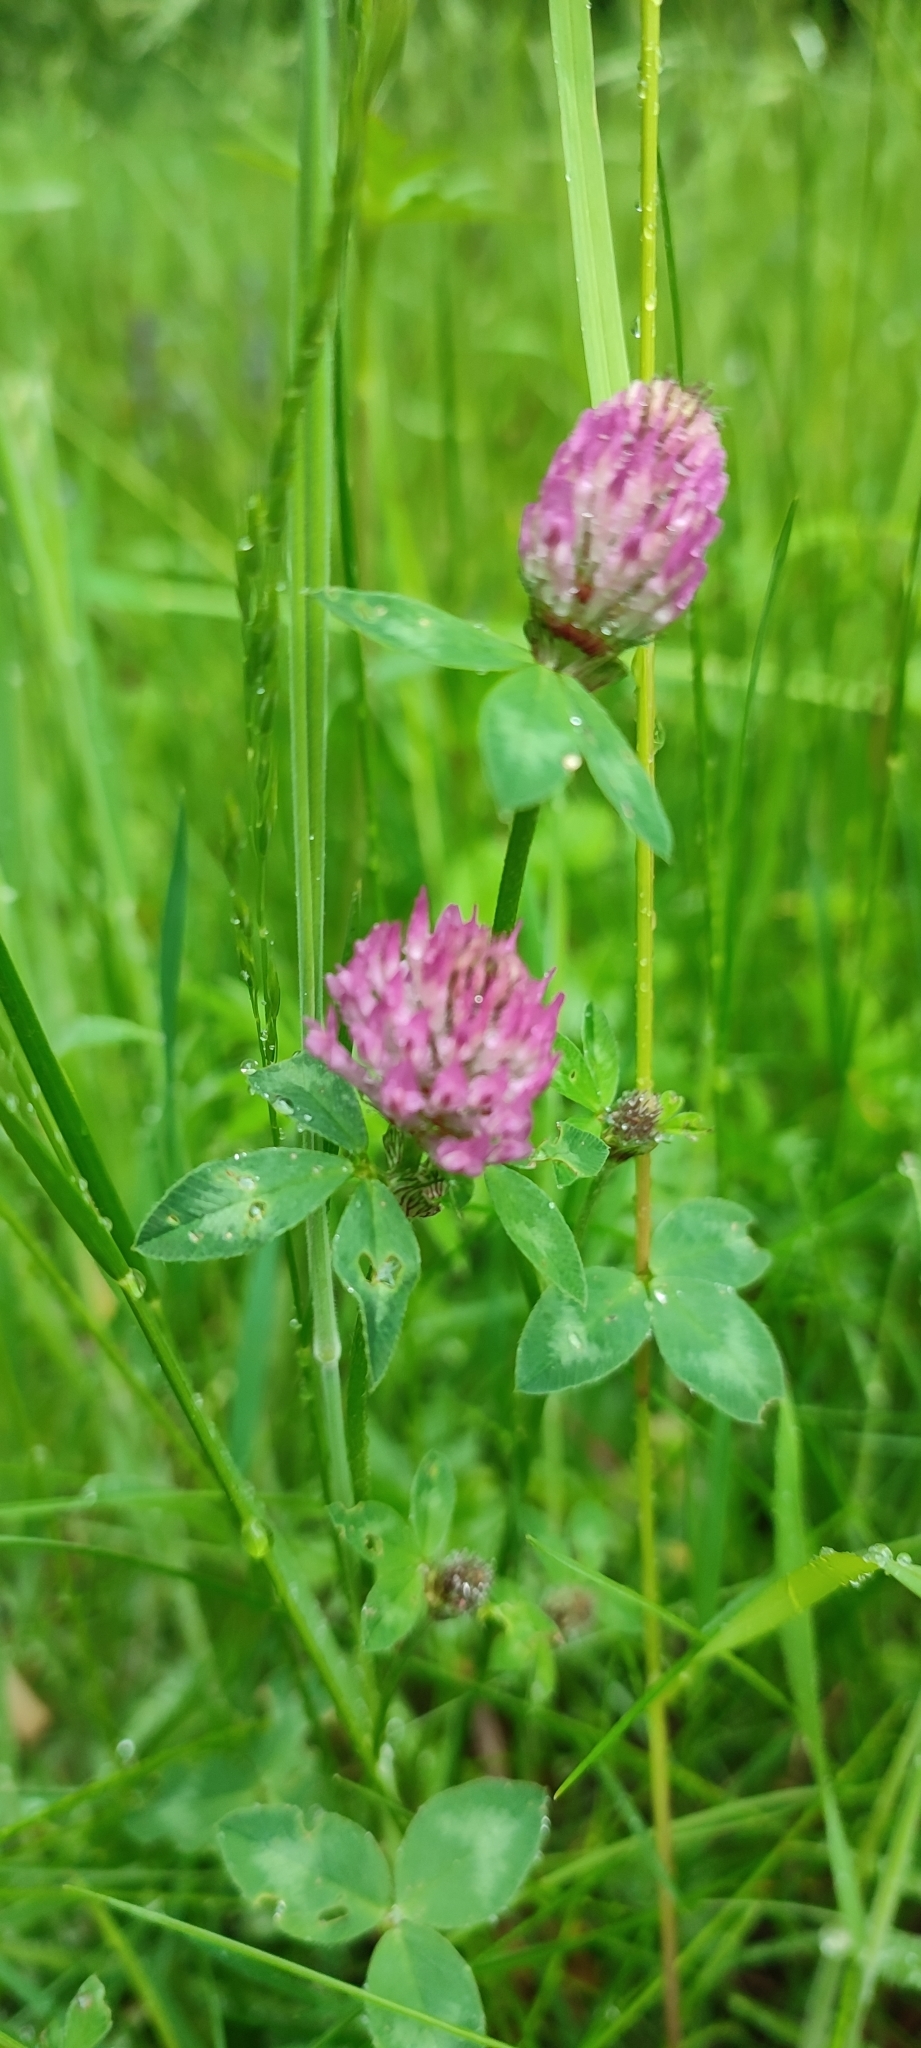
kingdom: Plantae
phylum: Tracheophyta
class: Magnoliopsida
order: Fabales
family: Fabaceae
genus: Trifolium
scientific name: Trifolium pratense
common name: Red clover
